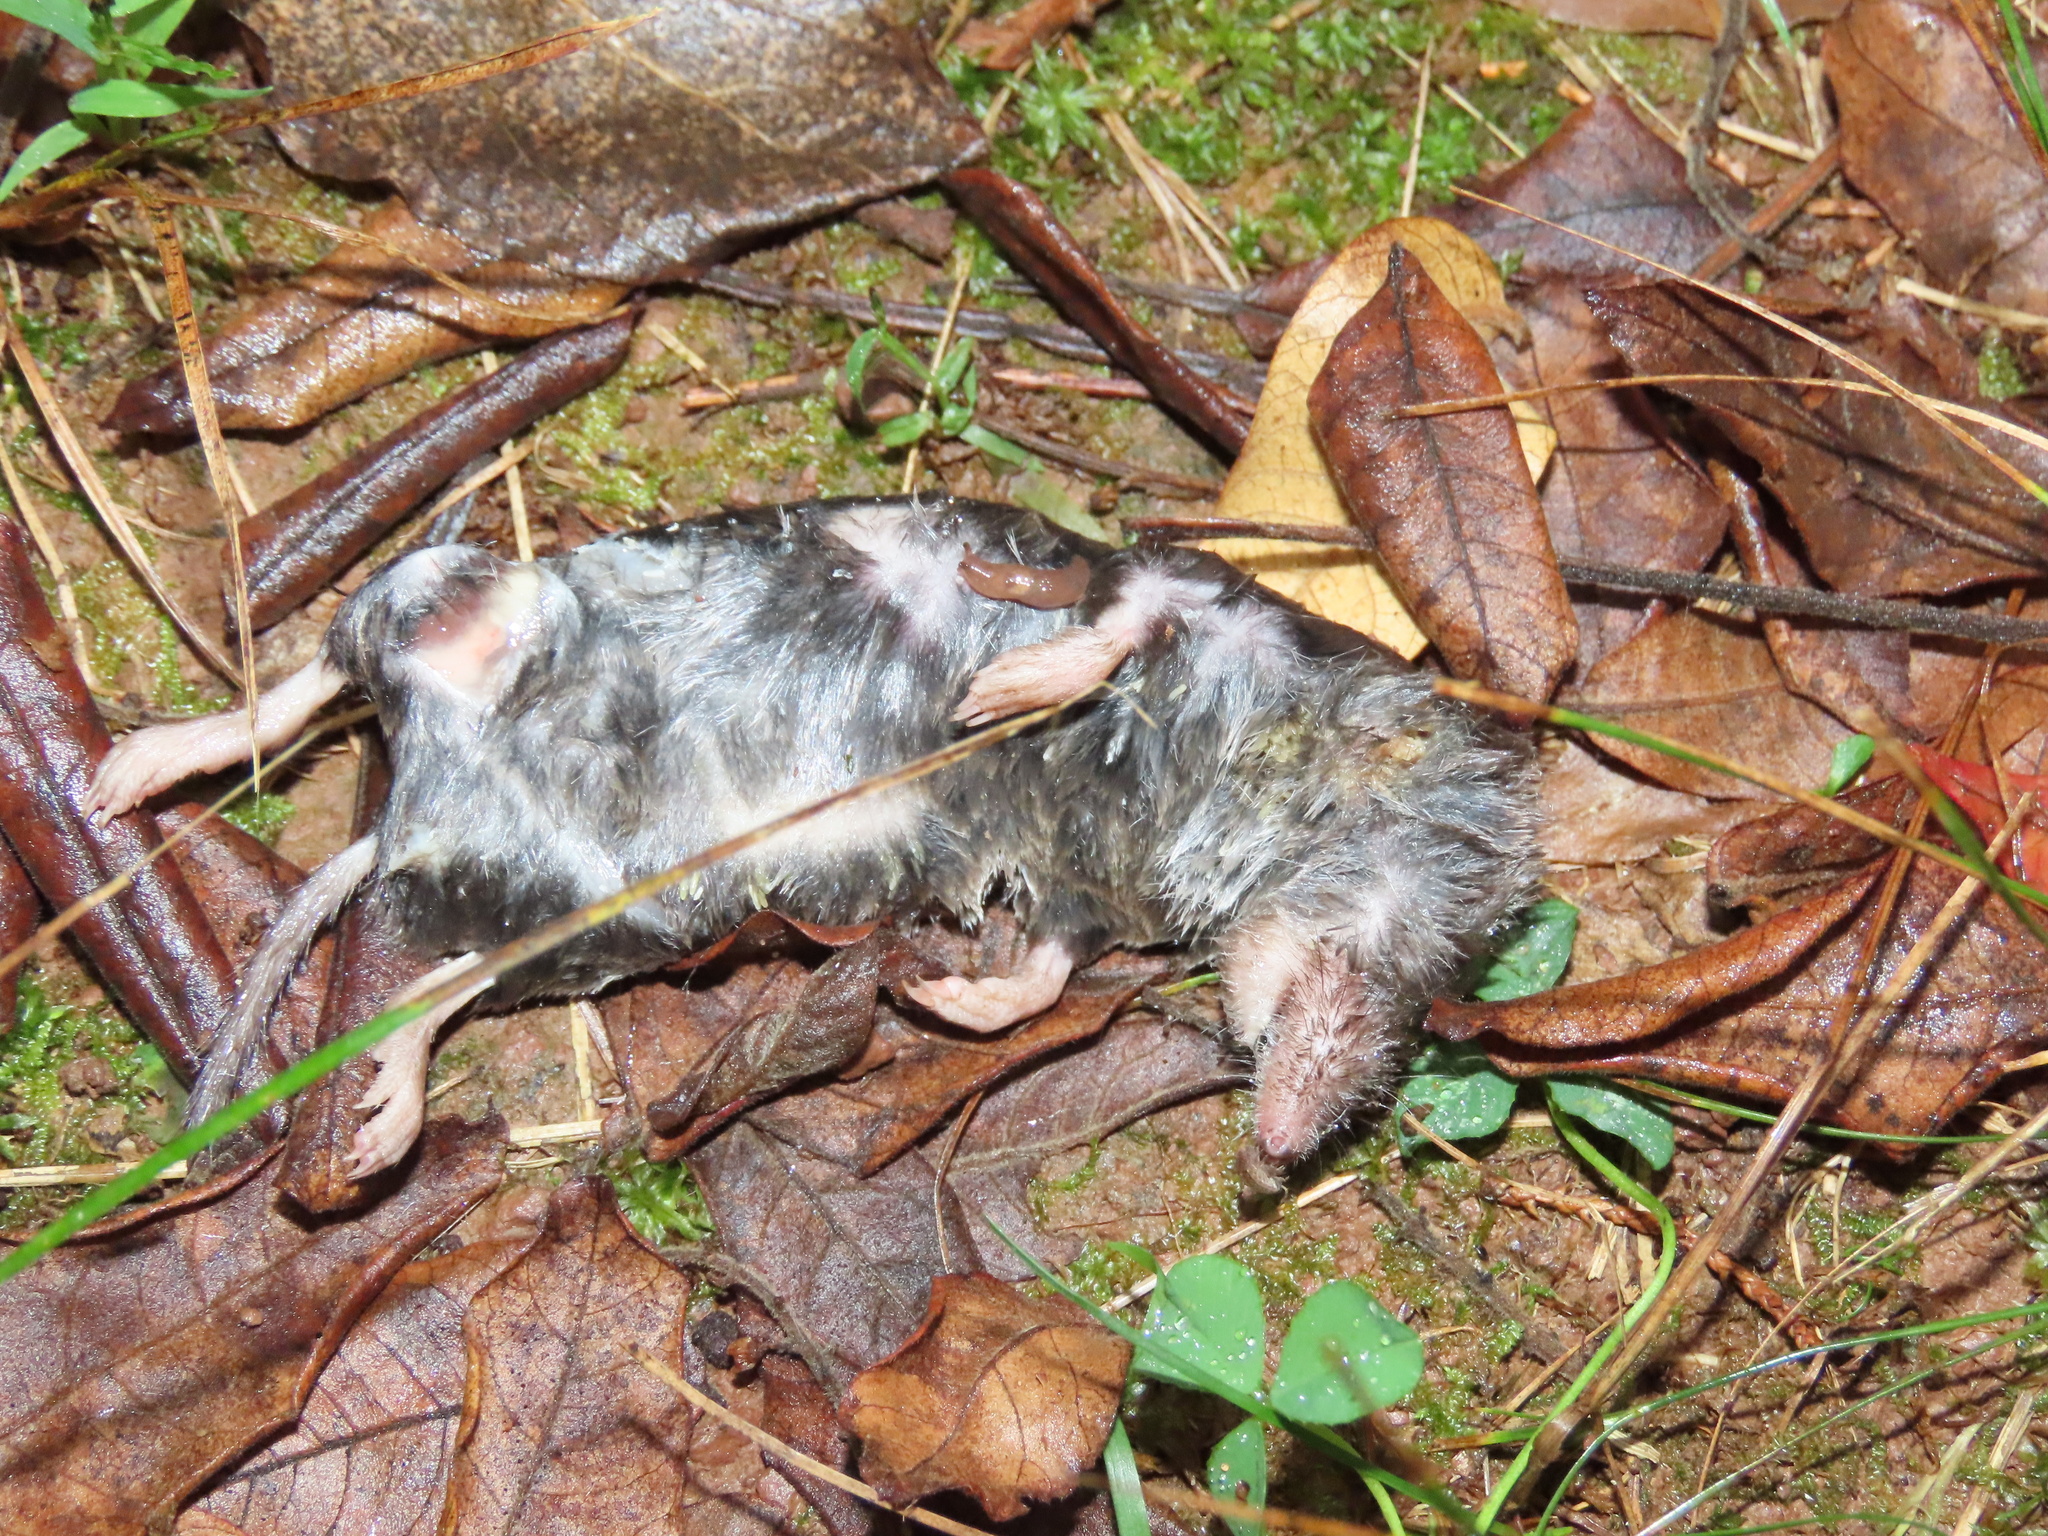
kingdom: Animalia
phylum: Chordata
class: Mammalia
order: Soricomorpha
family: Soricidae
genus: Blarina
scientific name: Blarina brevicauda
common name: Northern short-tailed shrew
